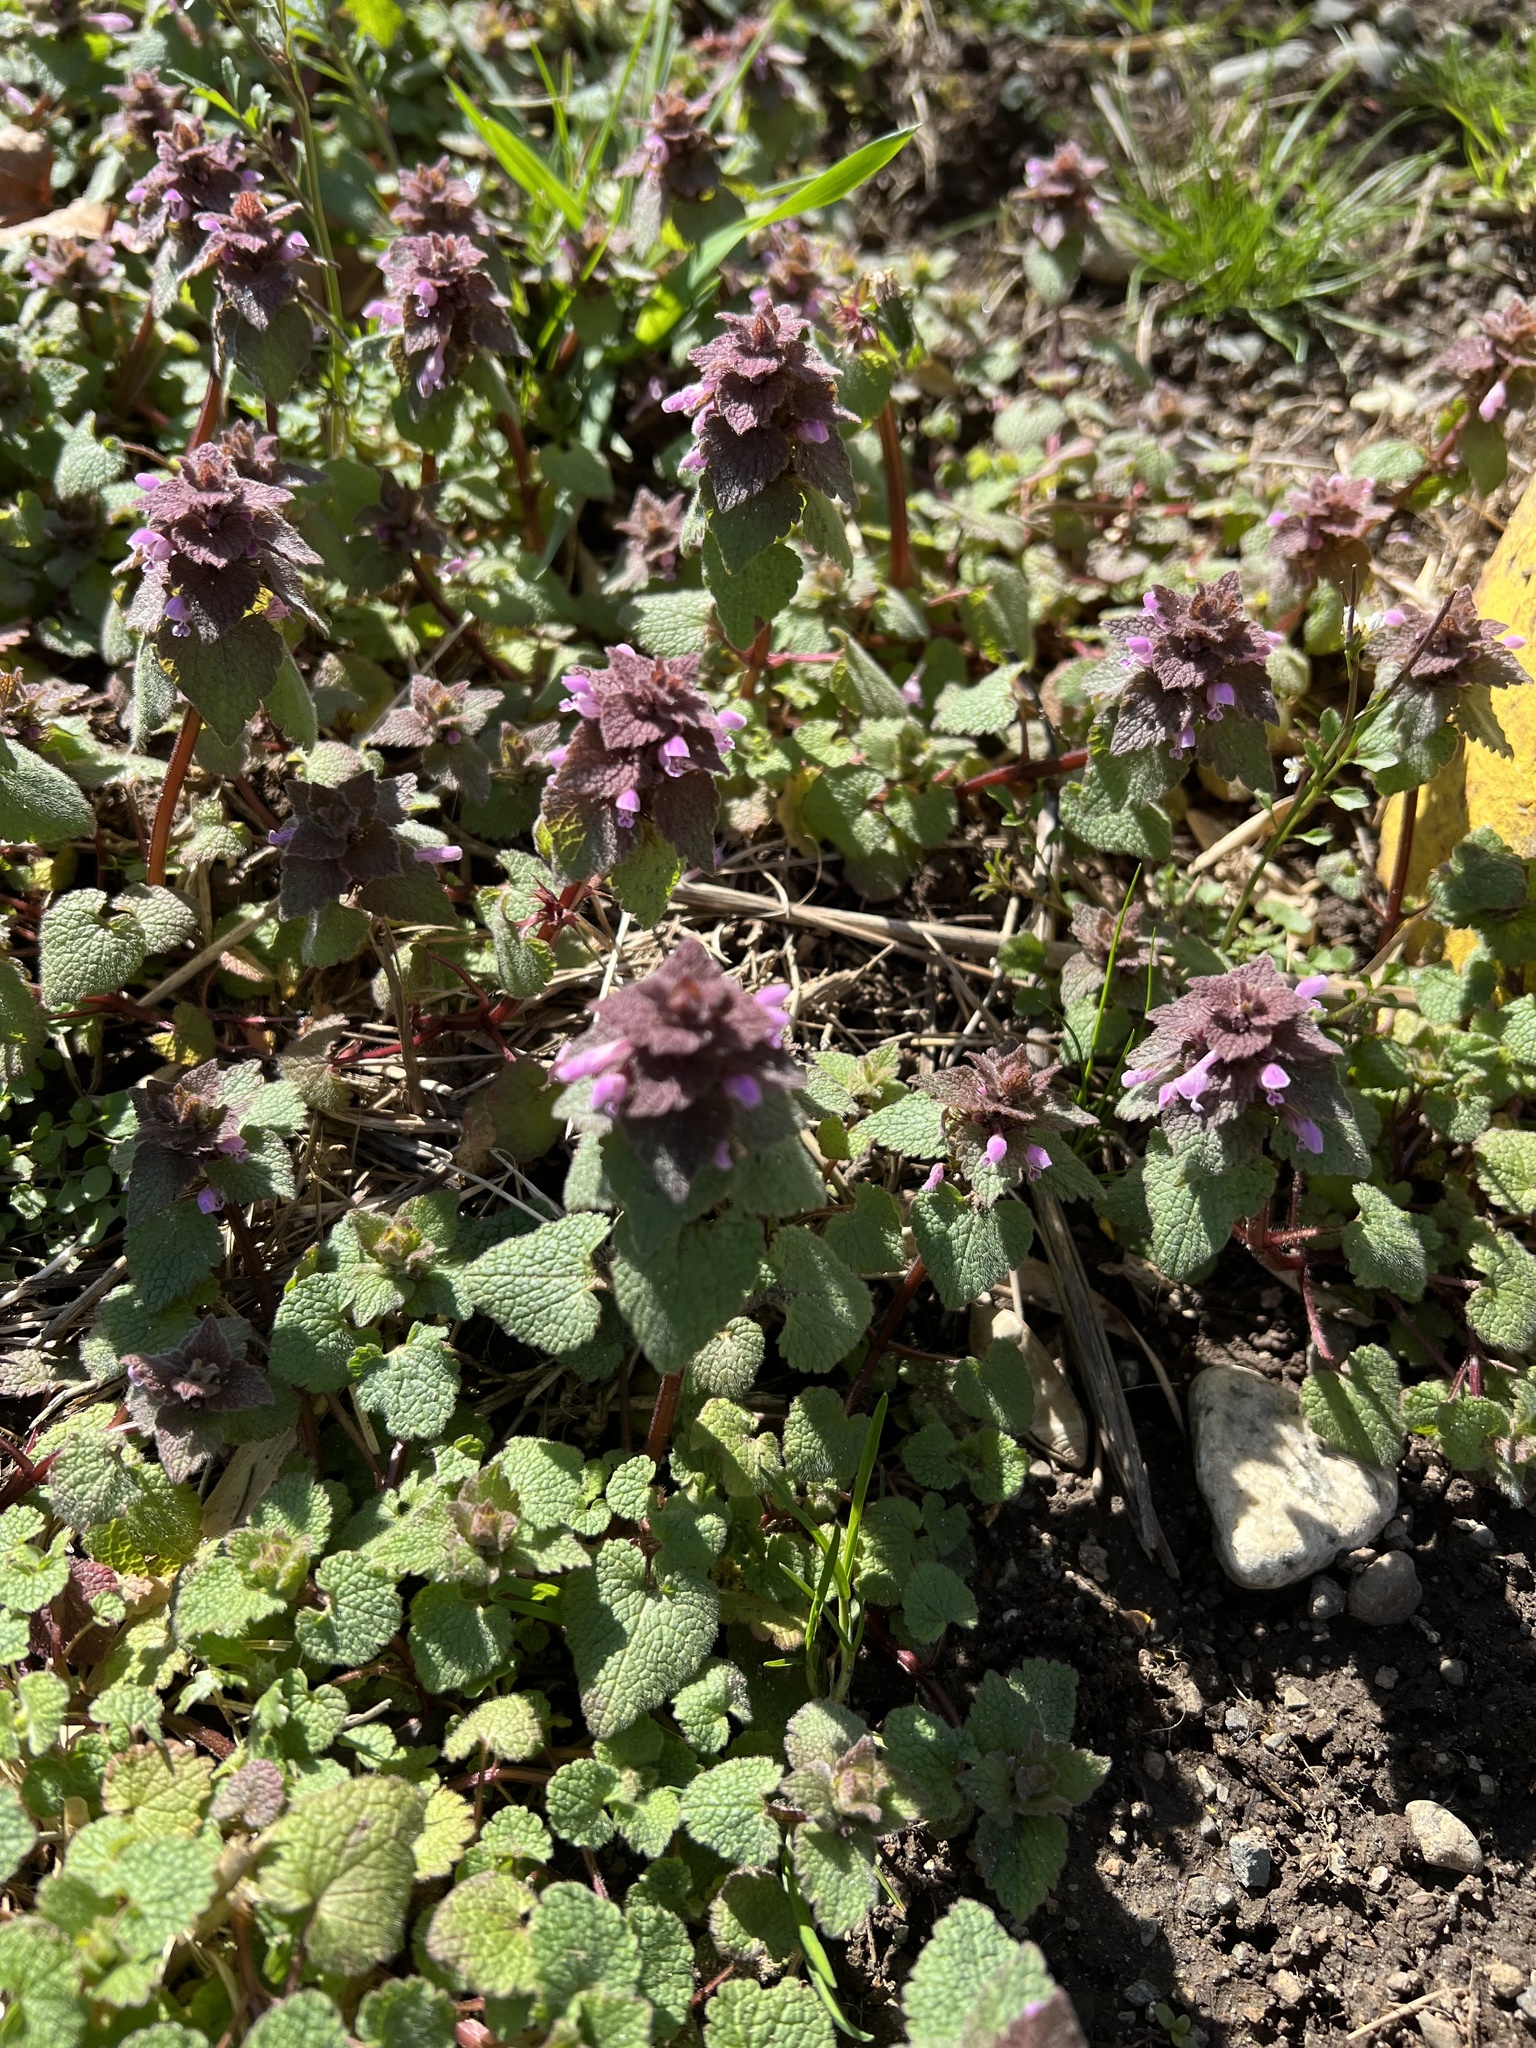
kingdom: Plantae
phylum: Tracheophyta
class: Magnoliopsida
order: Lamiales
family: Lamiaceae
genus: Lamium
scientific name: Lamium purpureum
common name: Red dead-nettle
